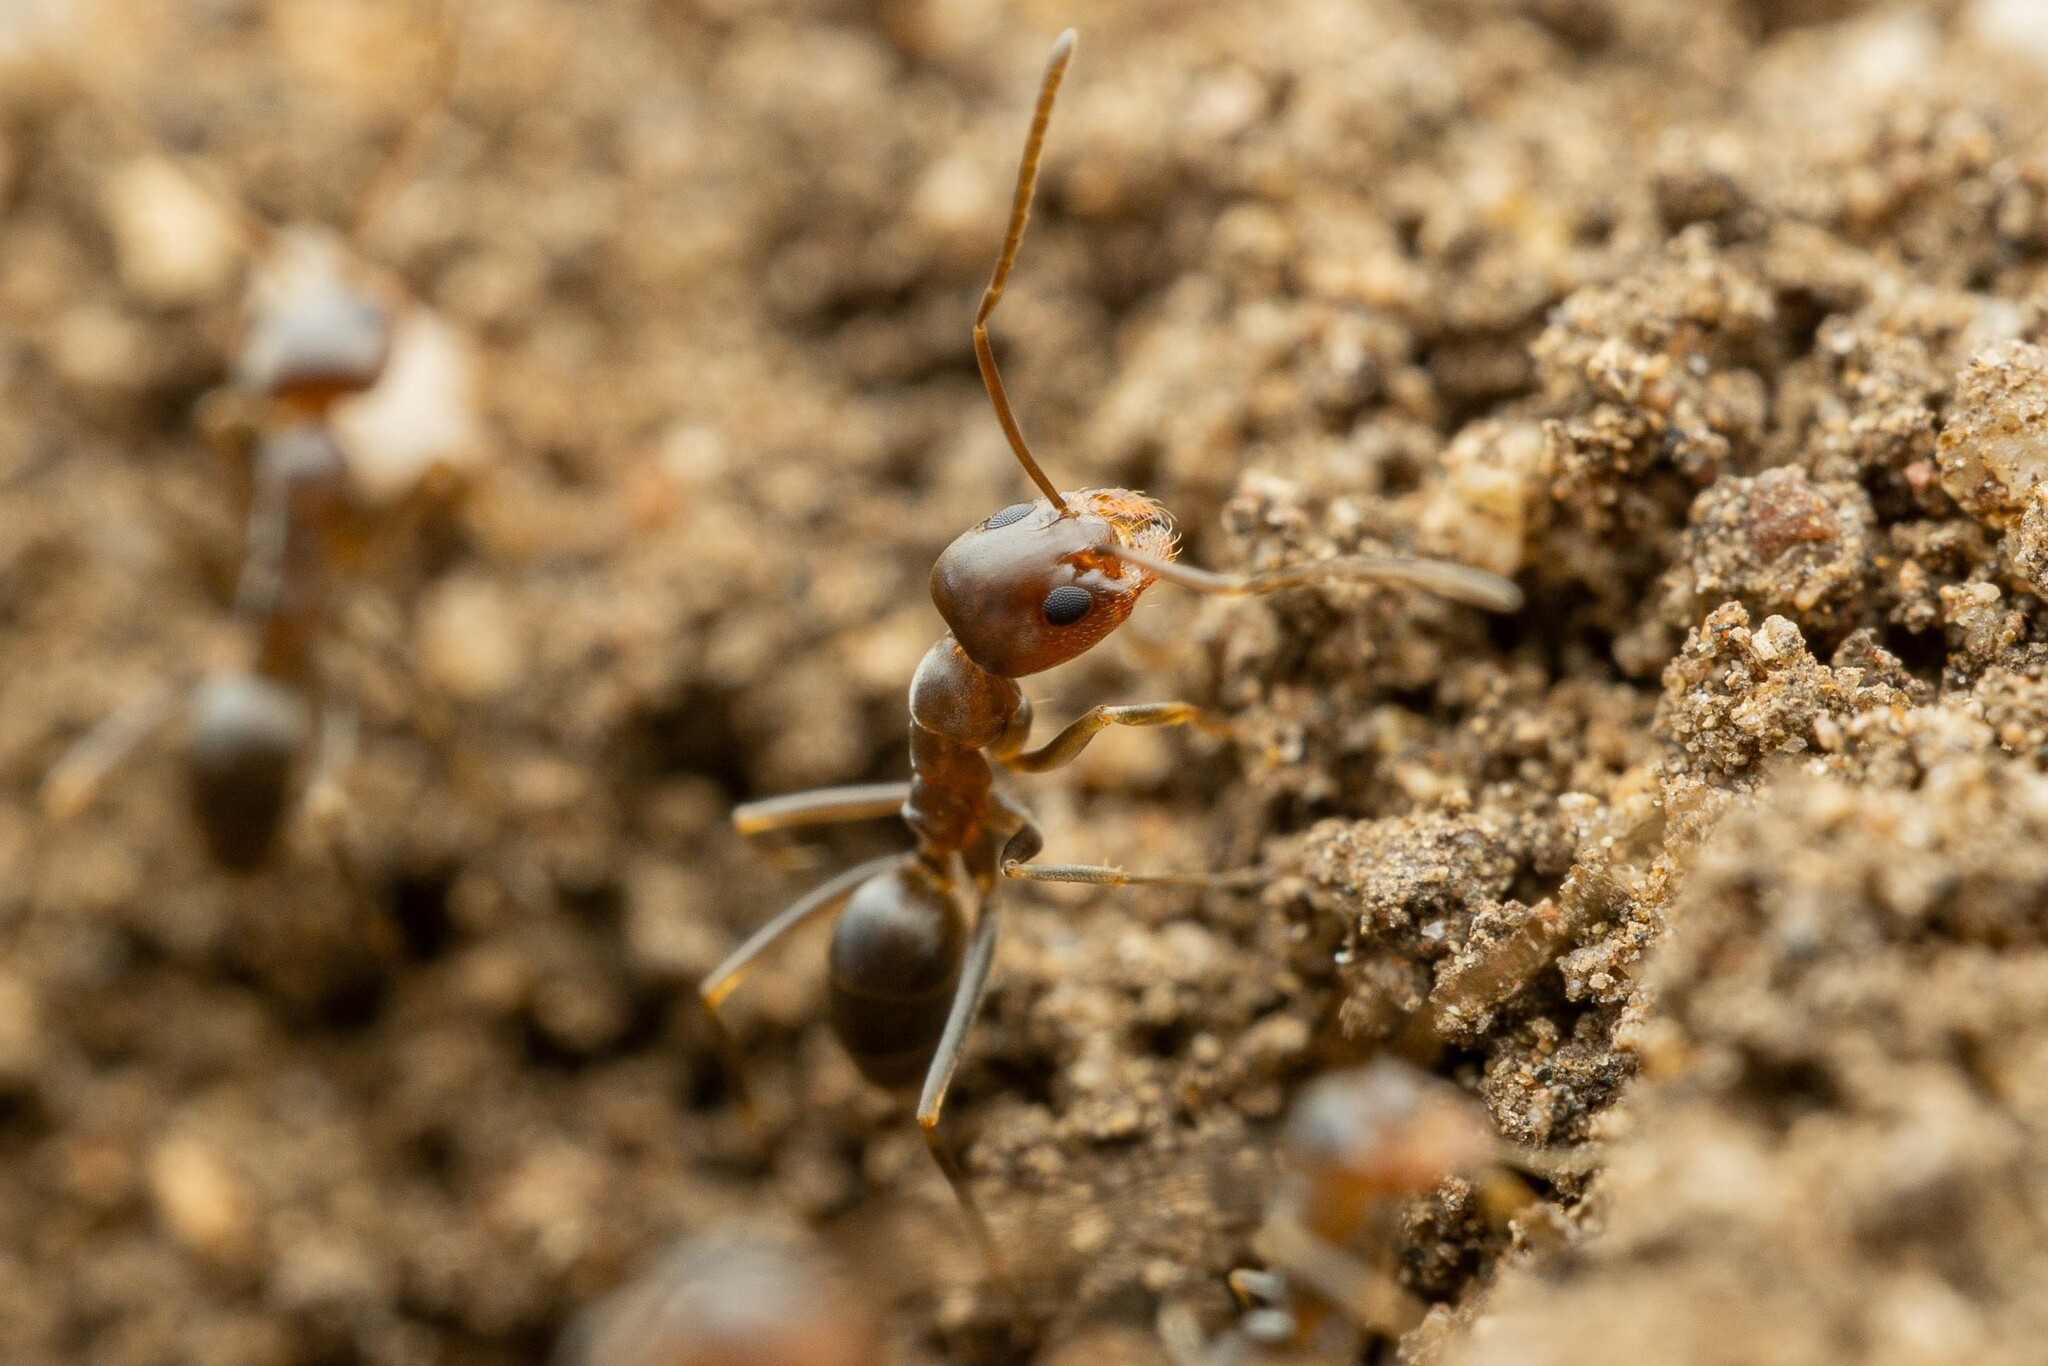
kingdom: Animalia
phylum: Arthropoda
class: Insecta
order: Hymenoptera
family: Formicidae
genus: Dorymyrmex
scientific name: Dorymyrmex
